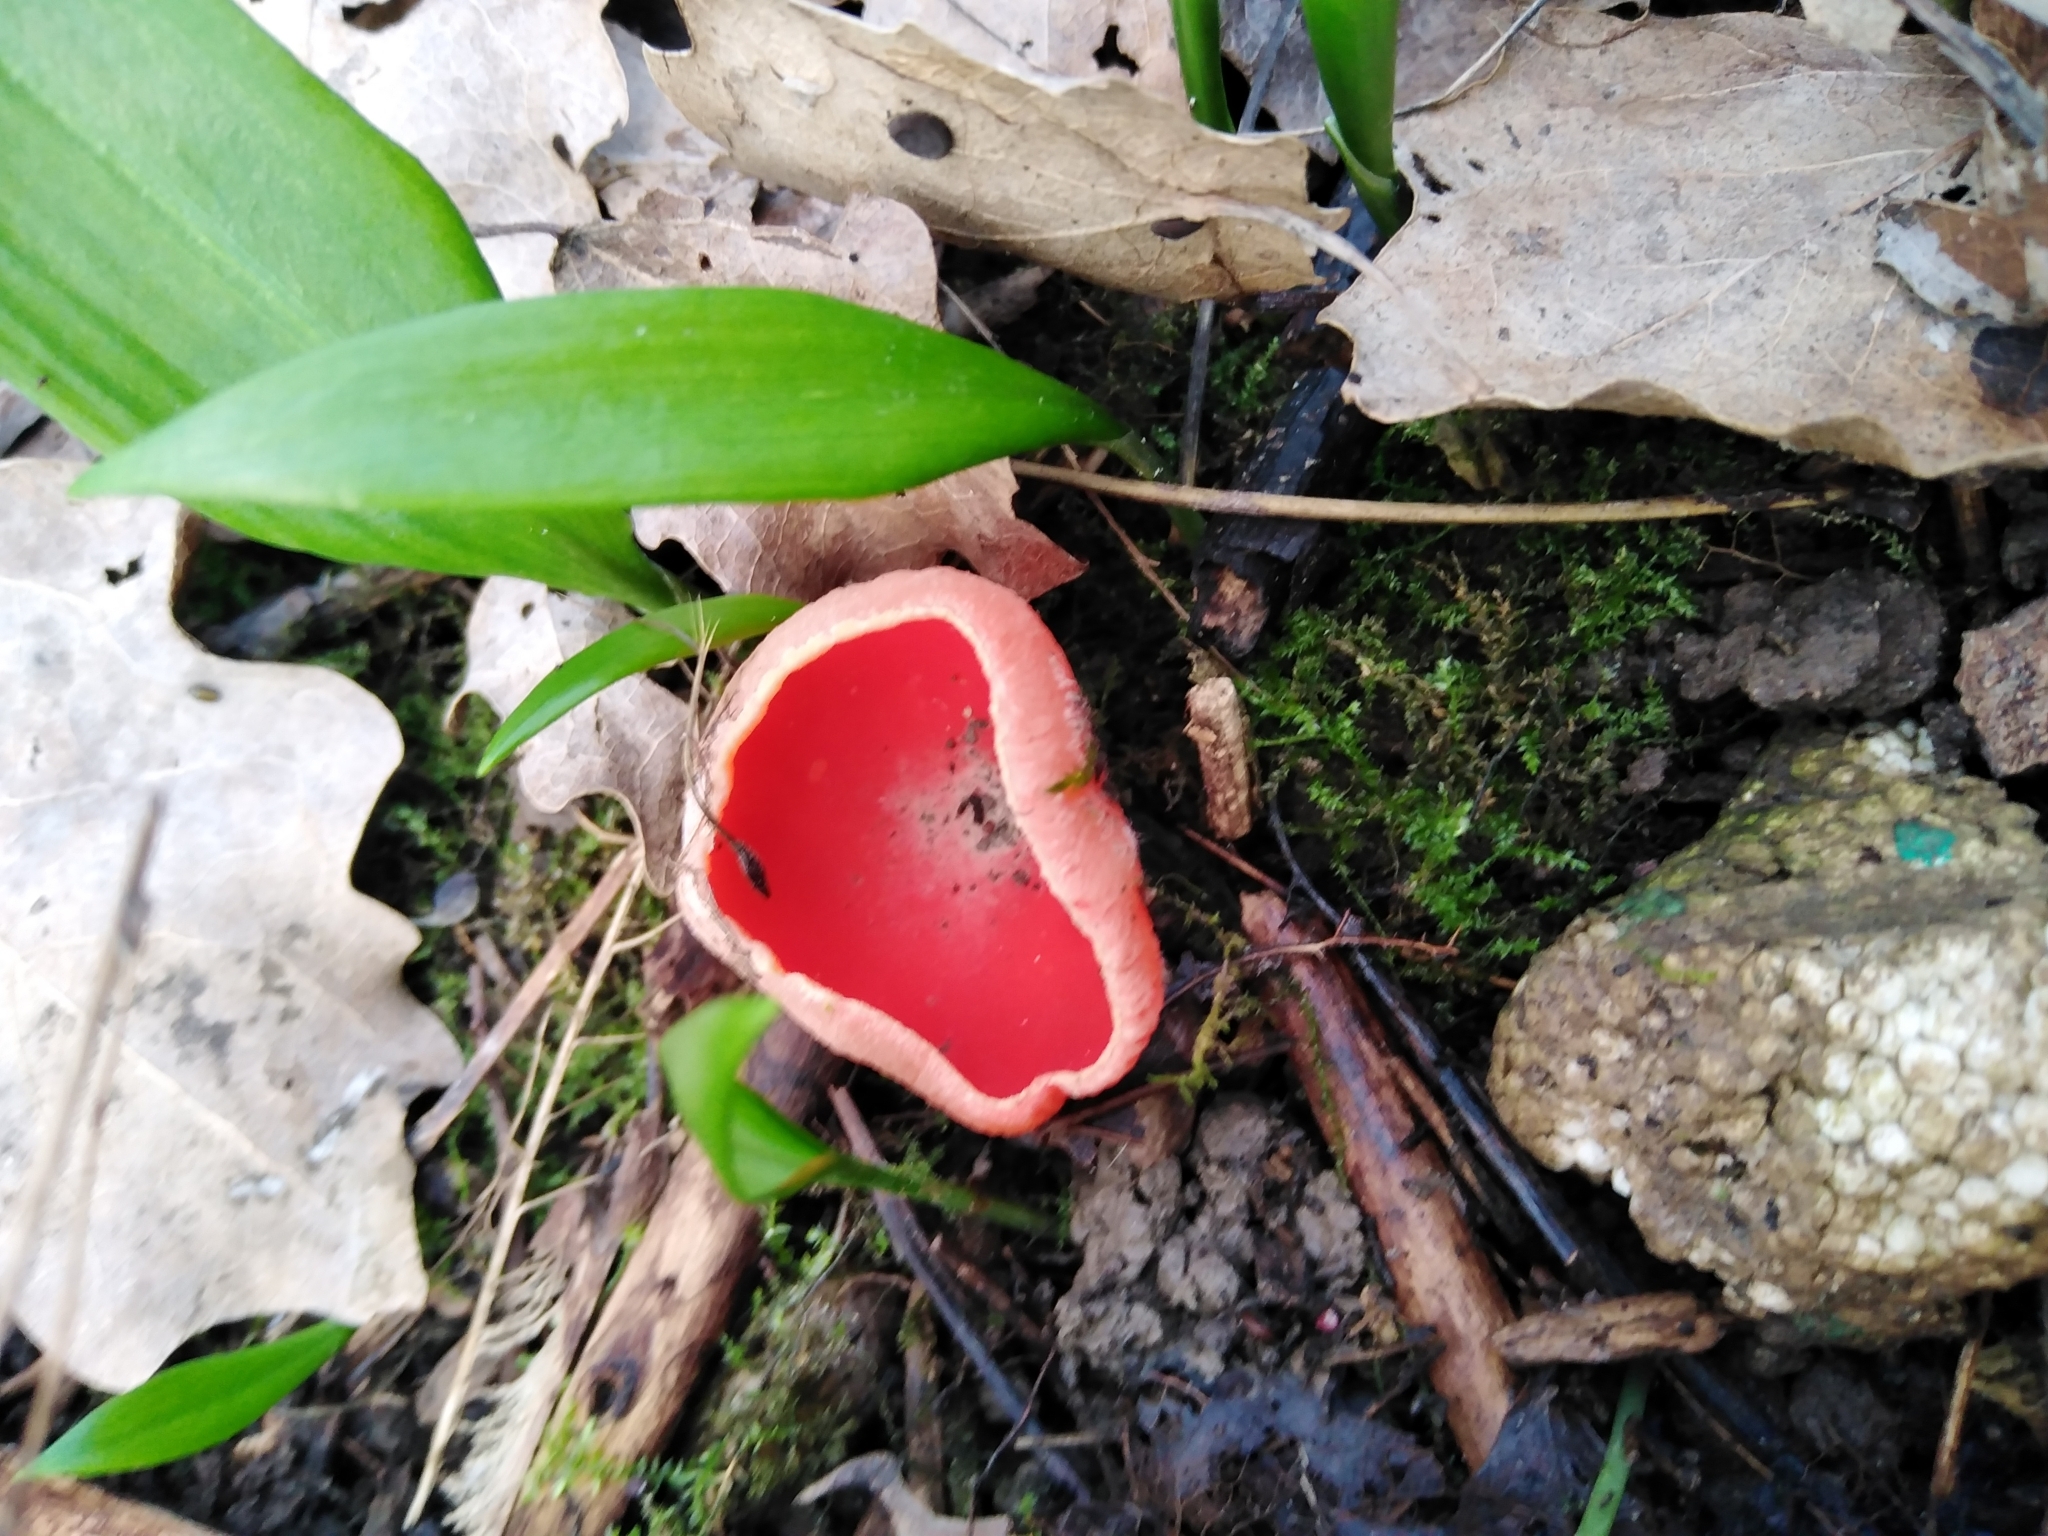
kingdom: Fungi
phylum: Ascomycota
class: Pezizomycetes
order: Pezizales
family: Sarcoscyphaceae
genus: Sarcoscypha
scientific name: Sarcoscypha
